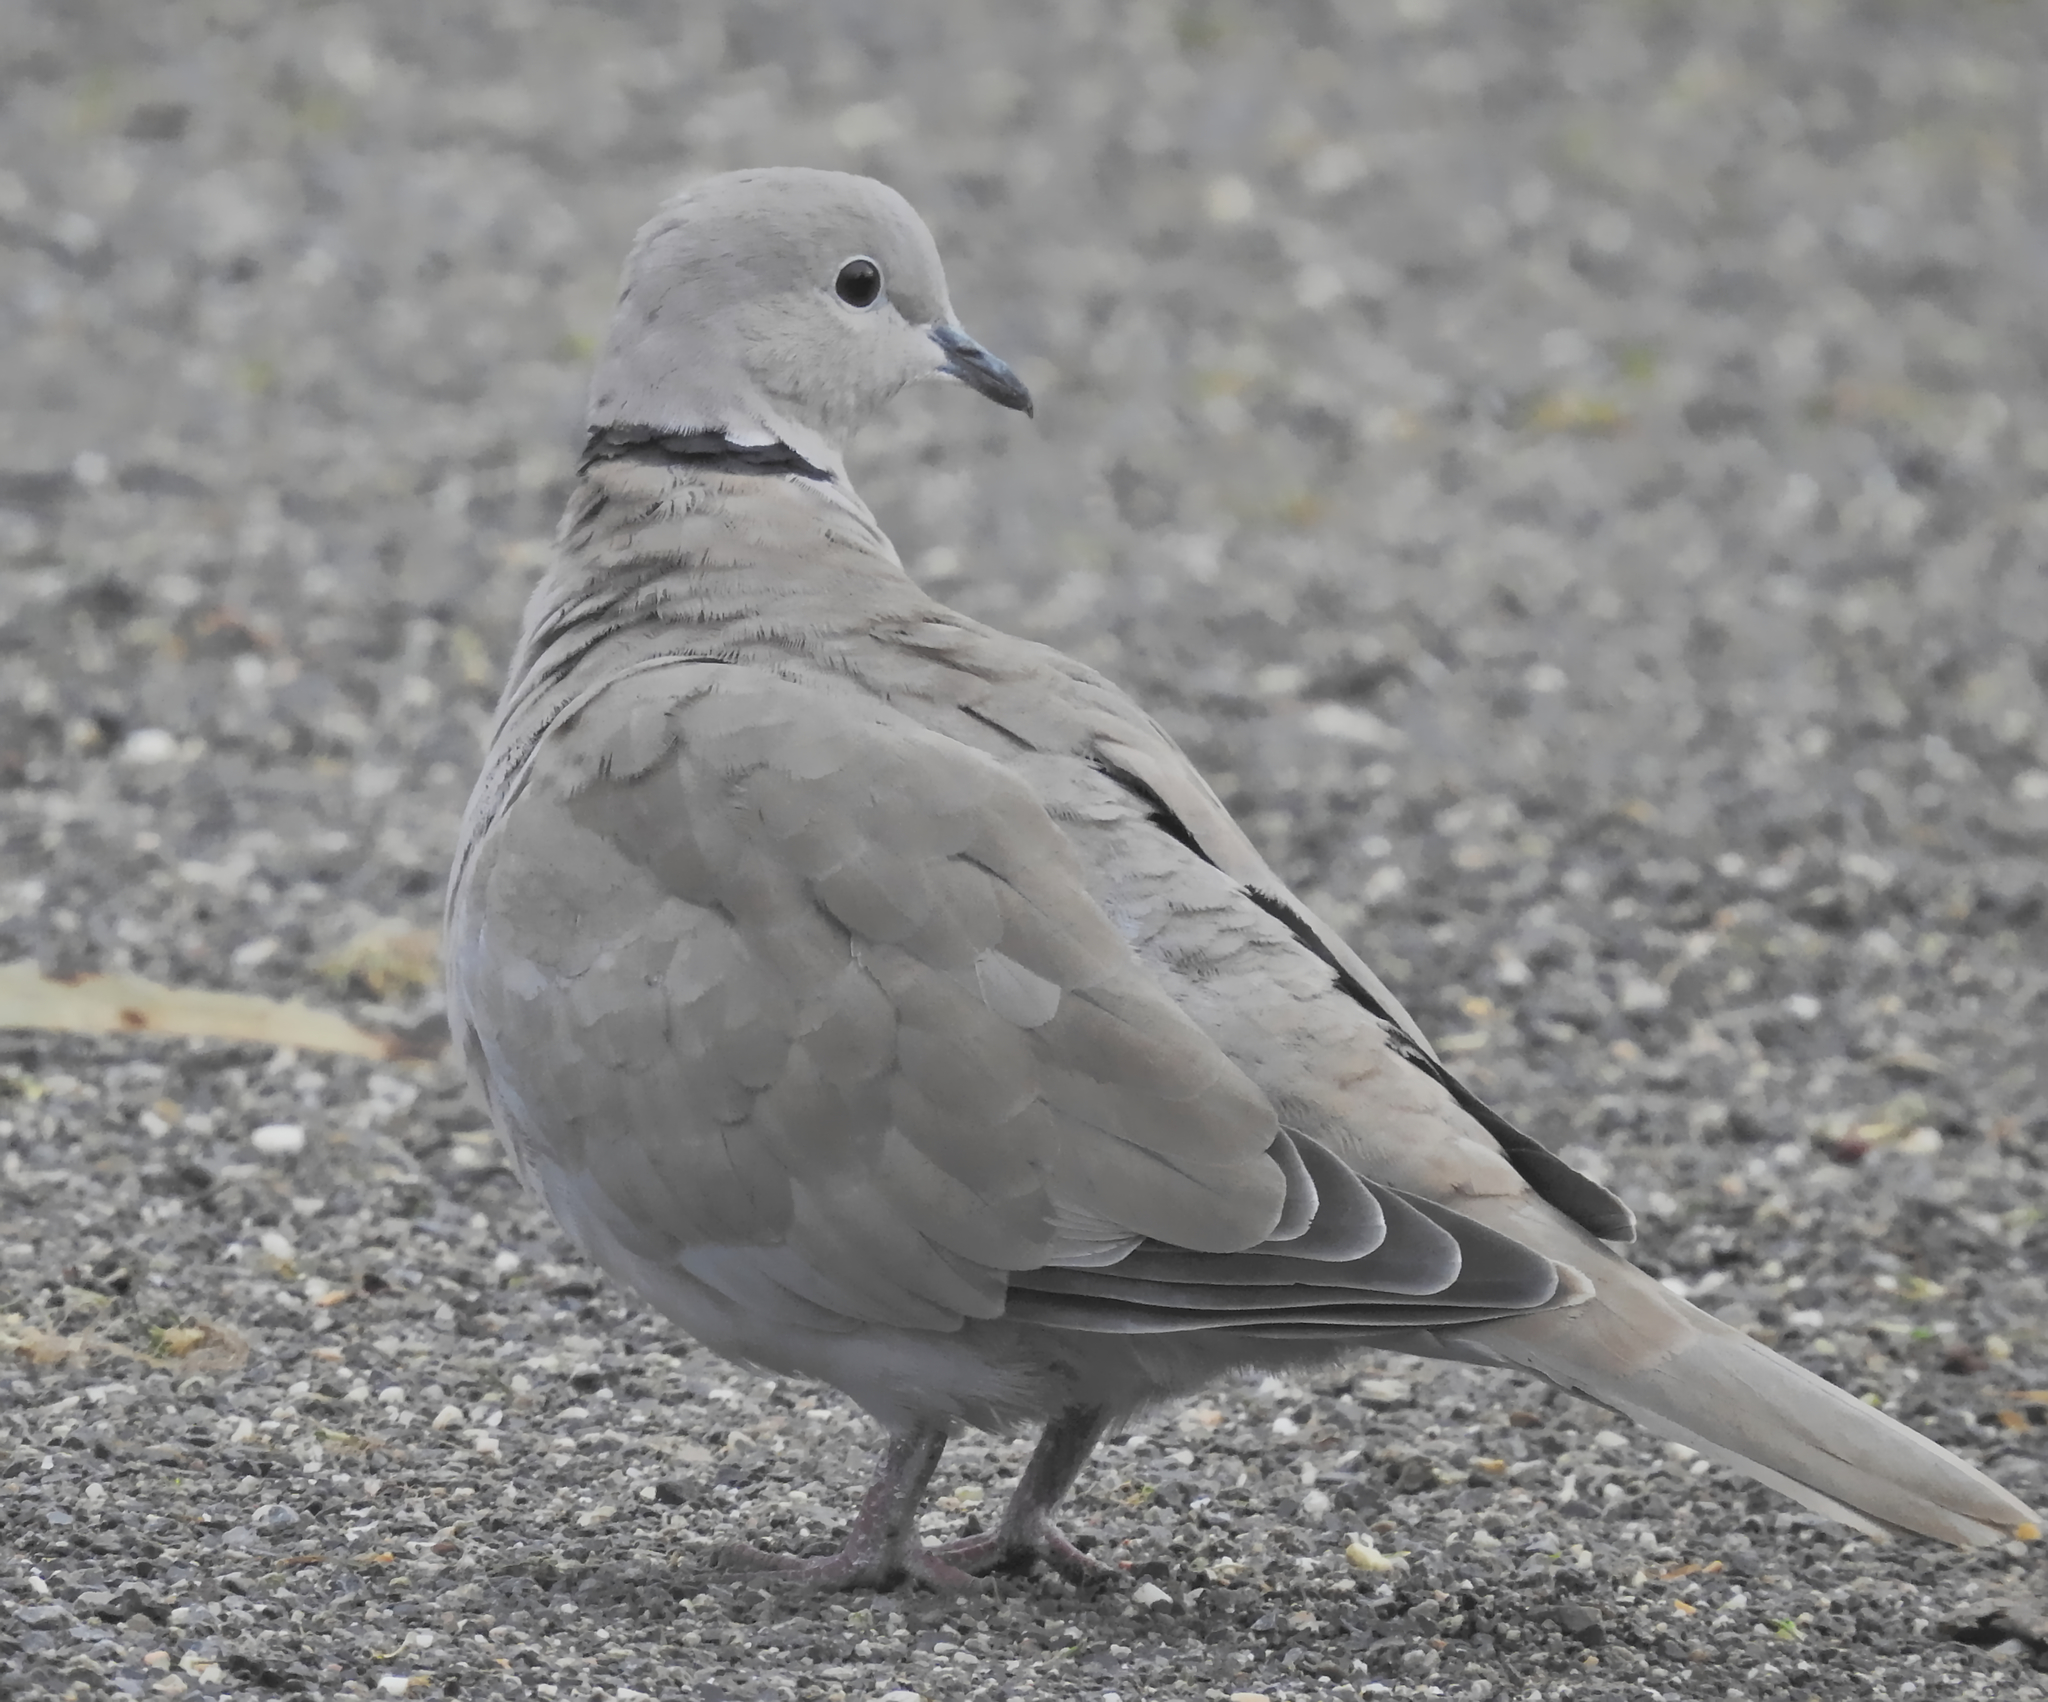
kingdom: Animalia
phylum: Chordata
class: Aves
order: Columbiformes
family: Columbidae
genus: Streptopelia
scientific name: Streptopelia decaocto
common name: Eurasian collared dove
